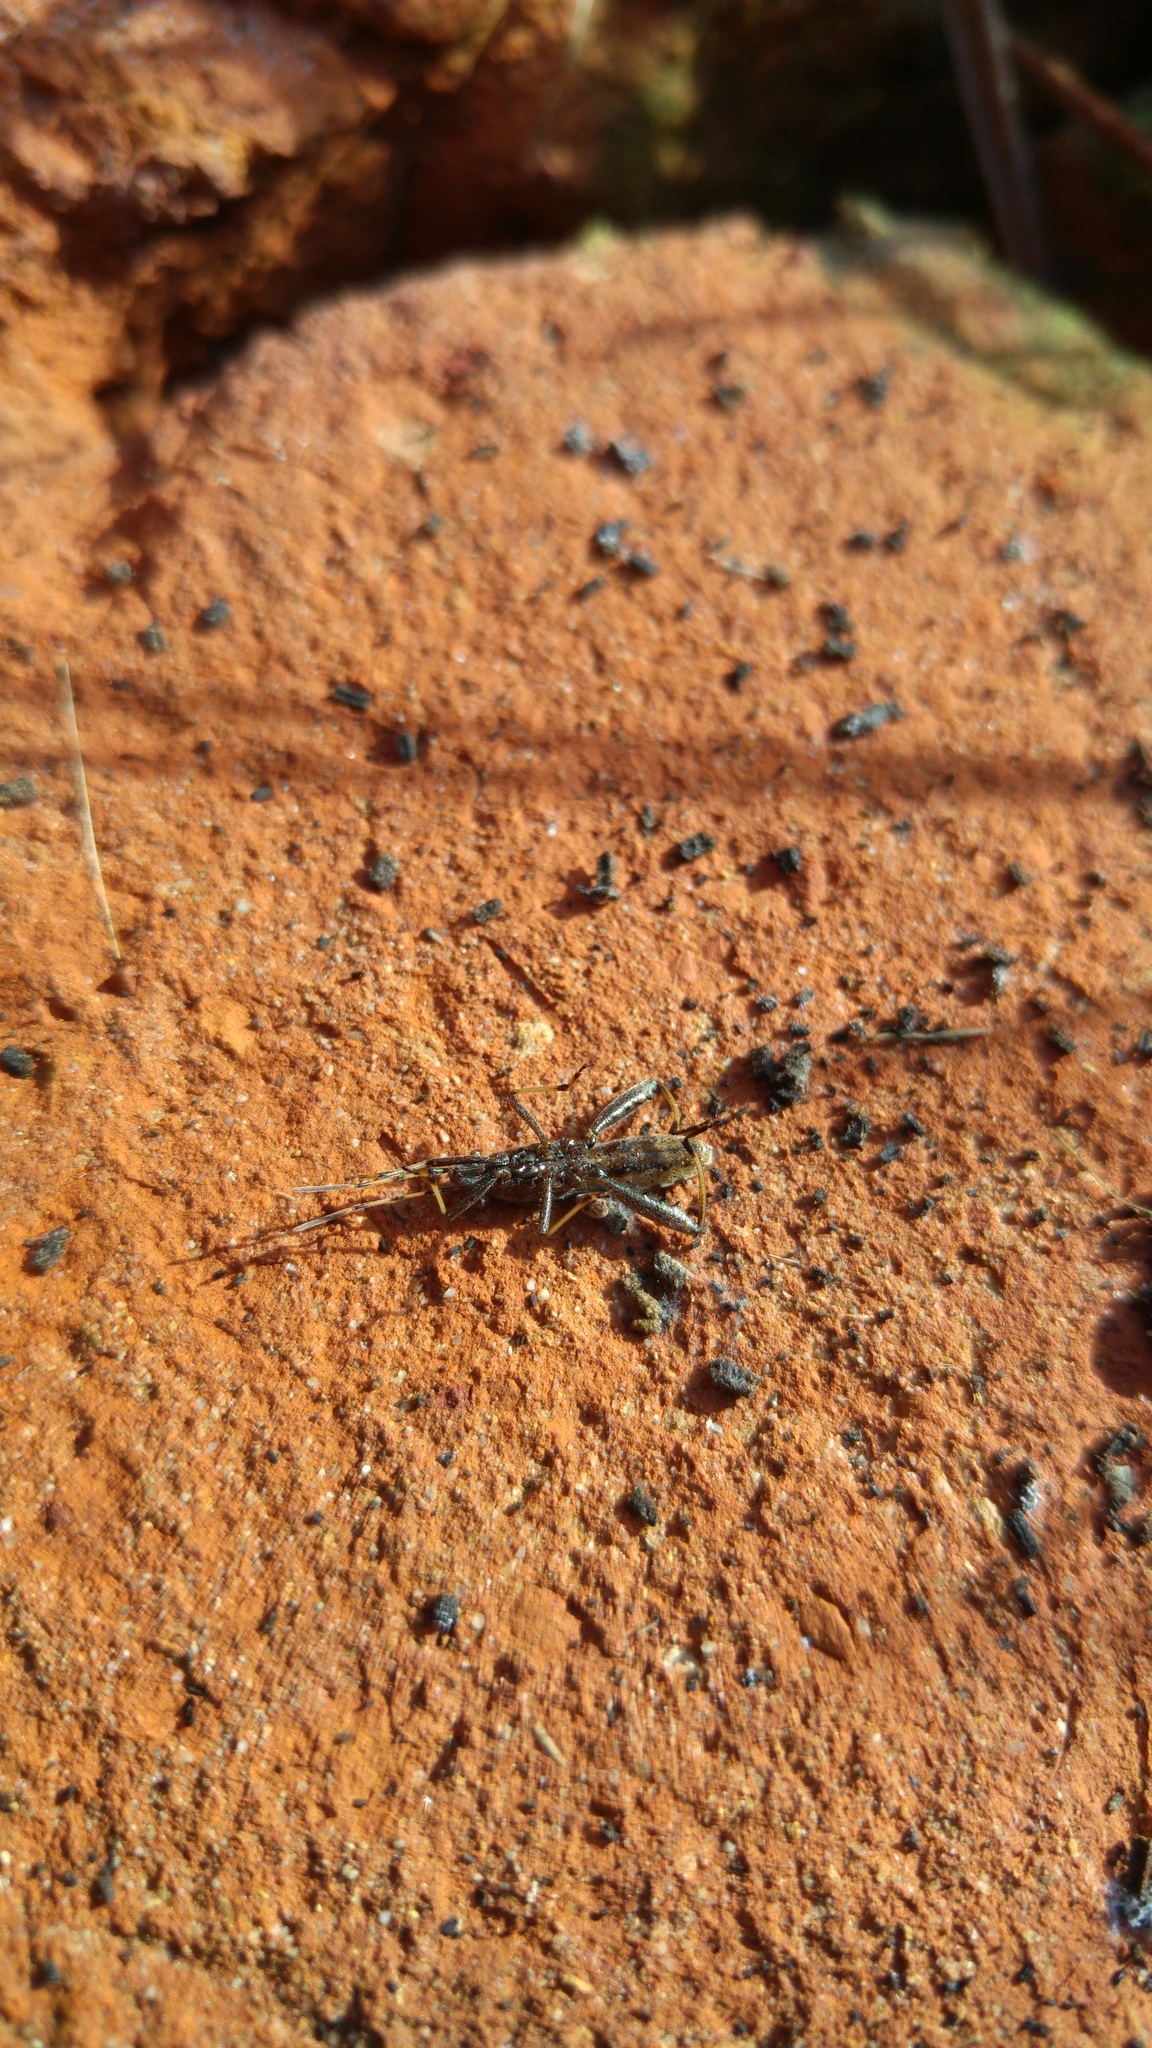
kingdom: Animalia
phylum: Arthropoda
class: Insecta
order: Hemiptera
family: Alydidae
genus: Camptopus
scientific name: Camptopus lateralis
